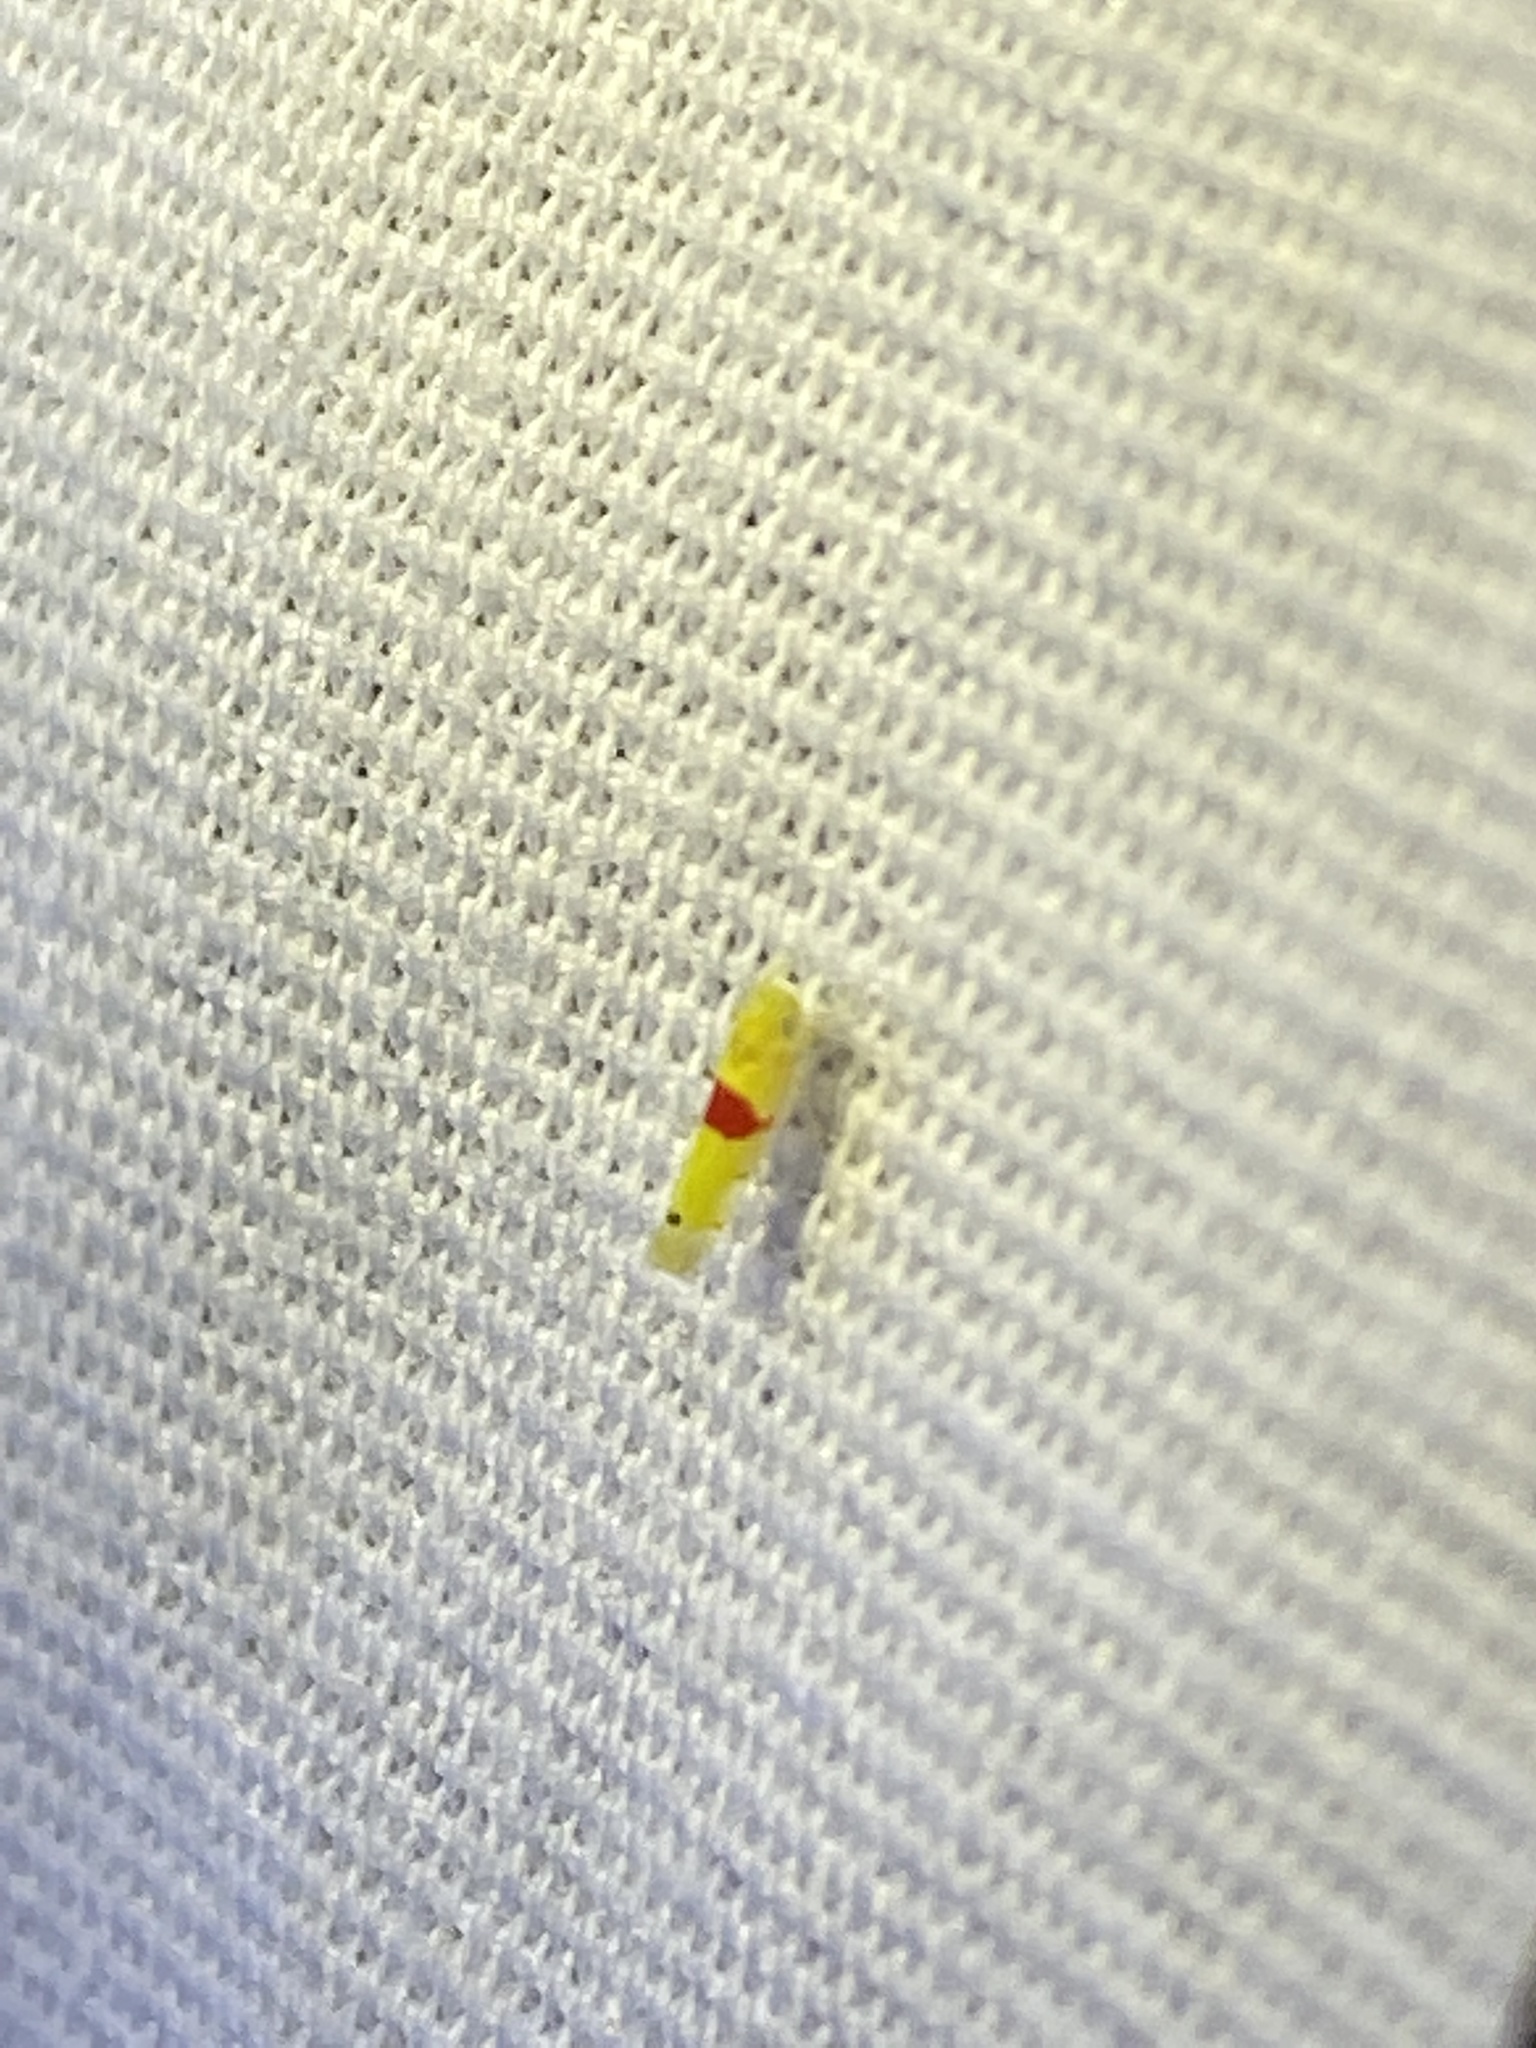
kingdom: Animalia
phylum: Arthropoda
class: Insecta
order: Hemiptera
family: Cicadellidae
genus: Eratoneura
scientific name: Eratoneura era
